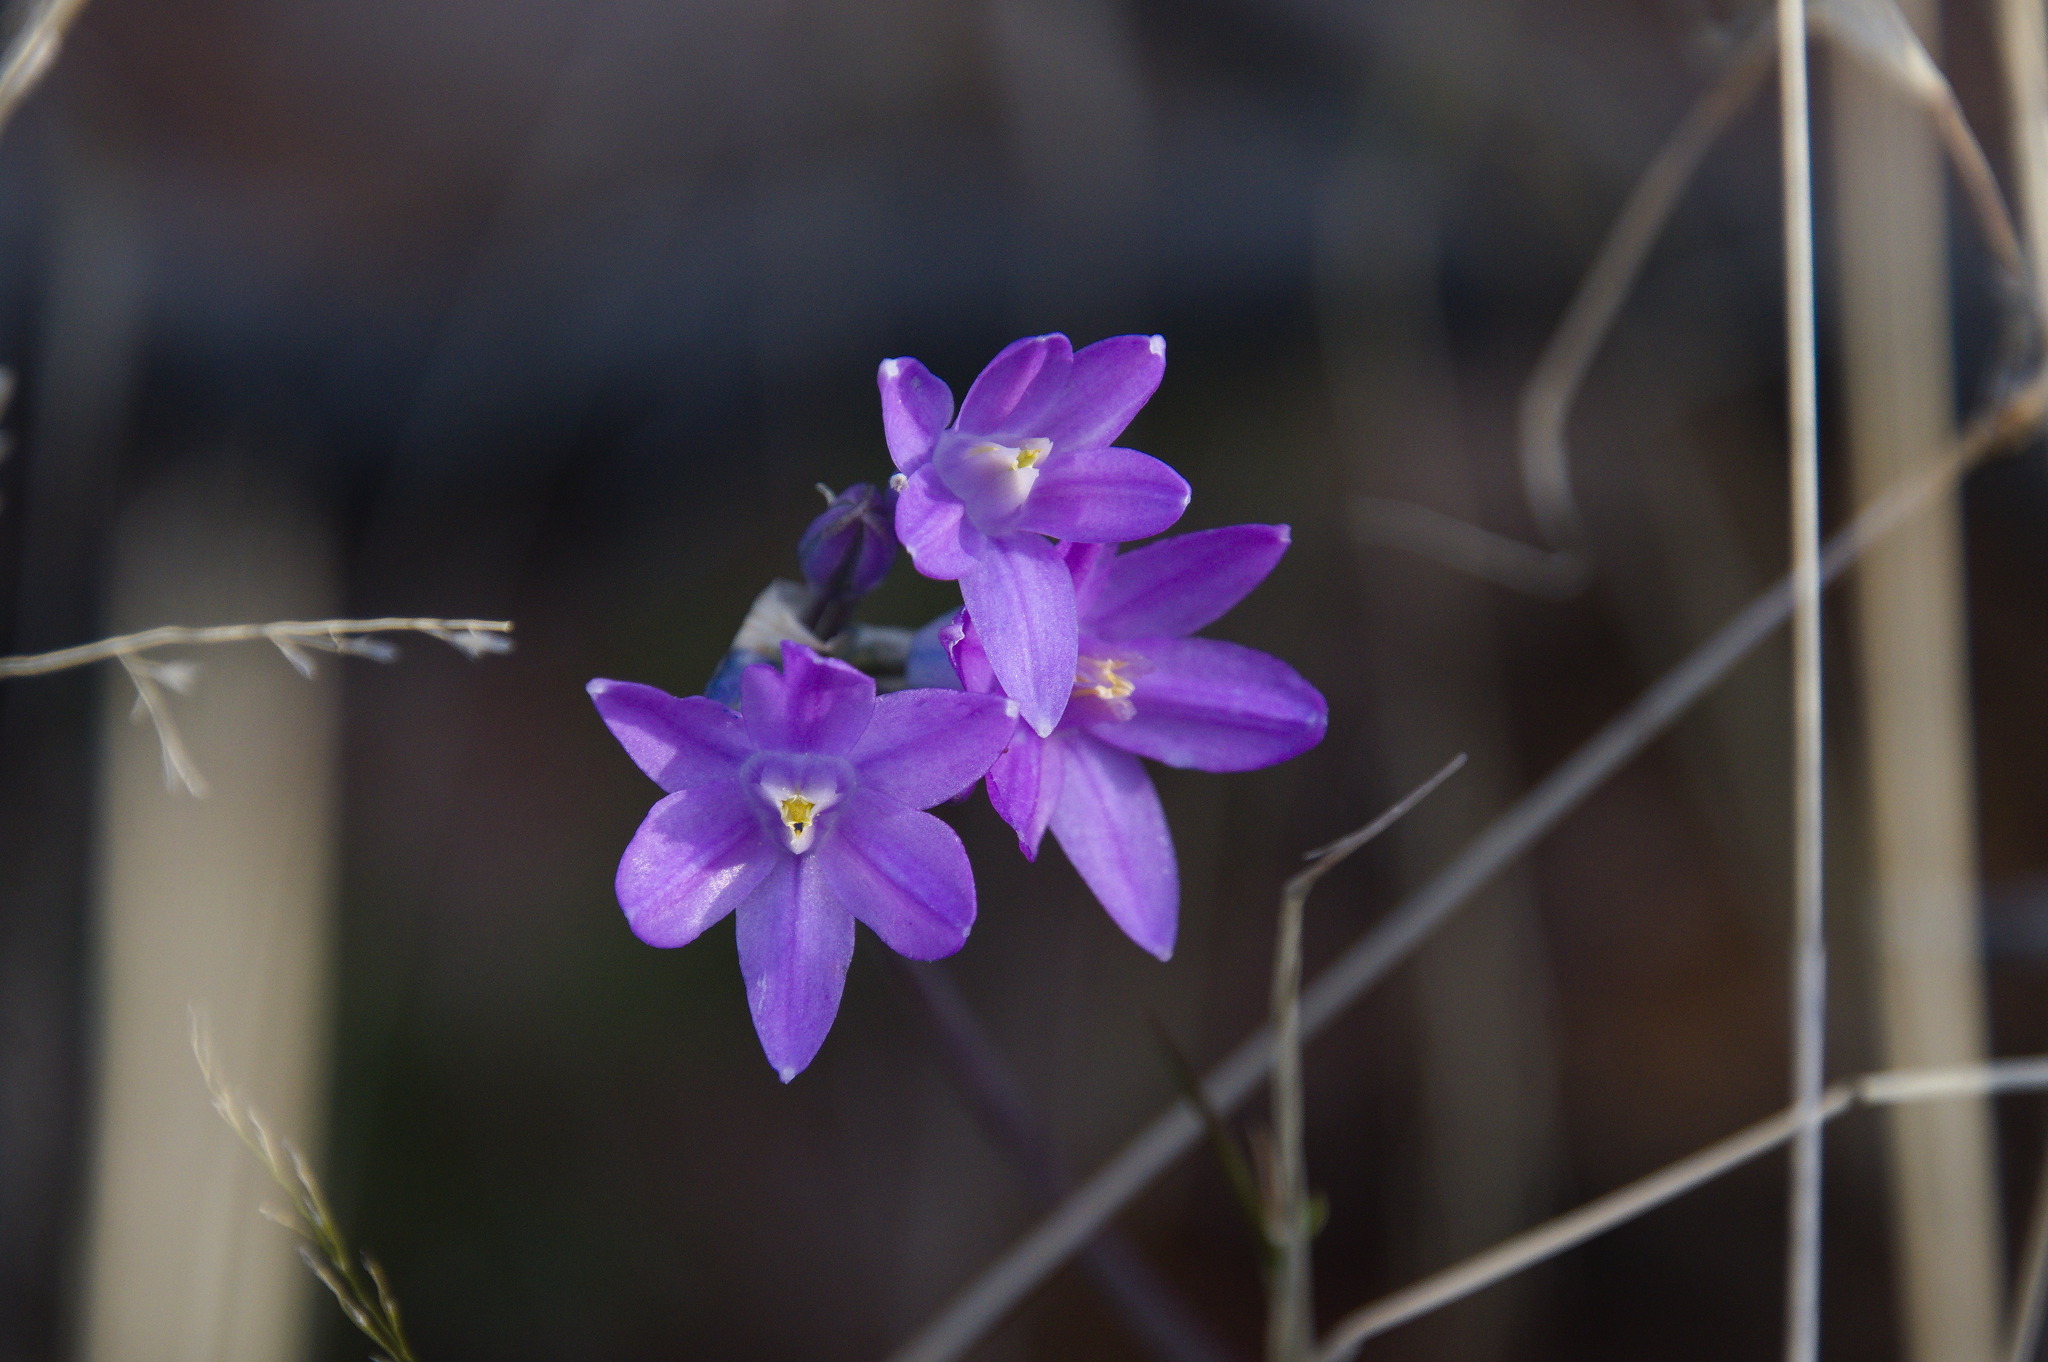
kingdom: Plantae
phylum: Tracheophyta
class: Liliopsida
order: Asparagales
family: Asparagaceae
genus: Dipterostemon
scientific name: Dipterostemon capitatus
